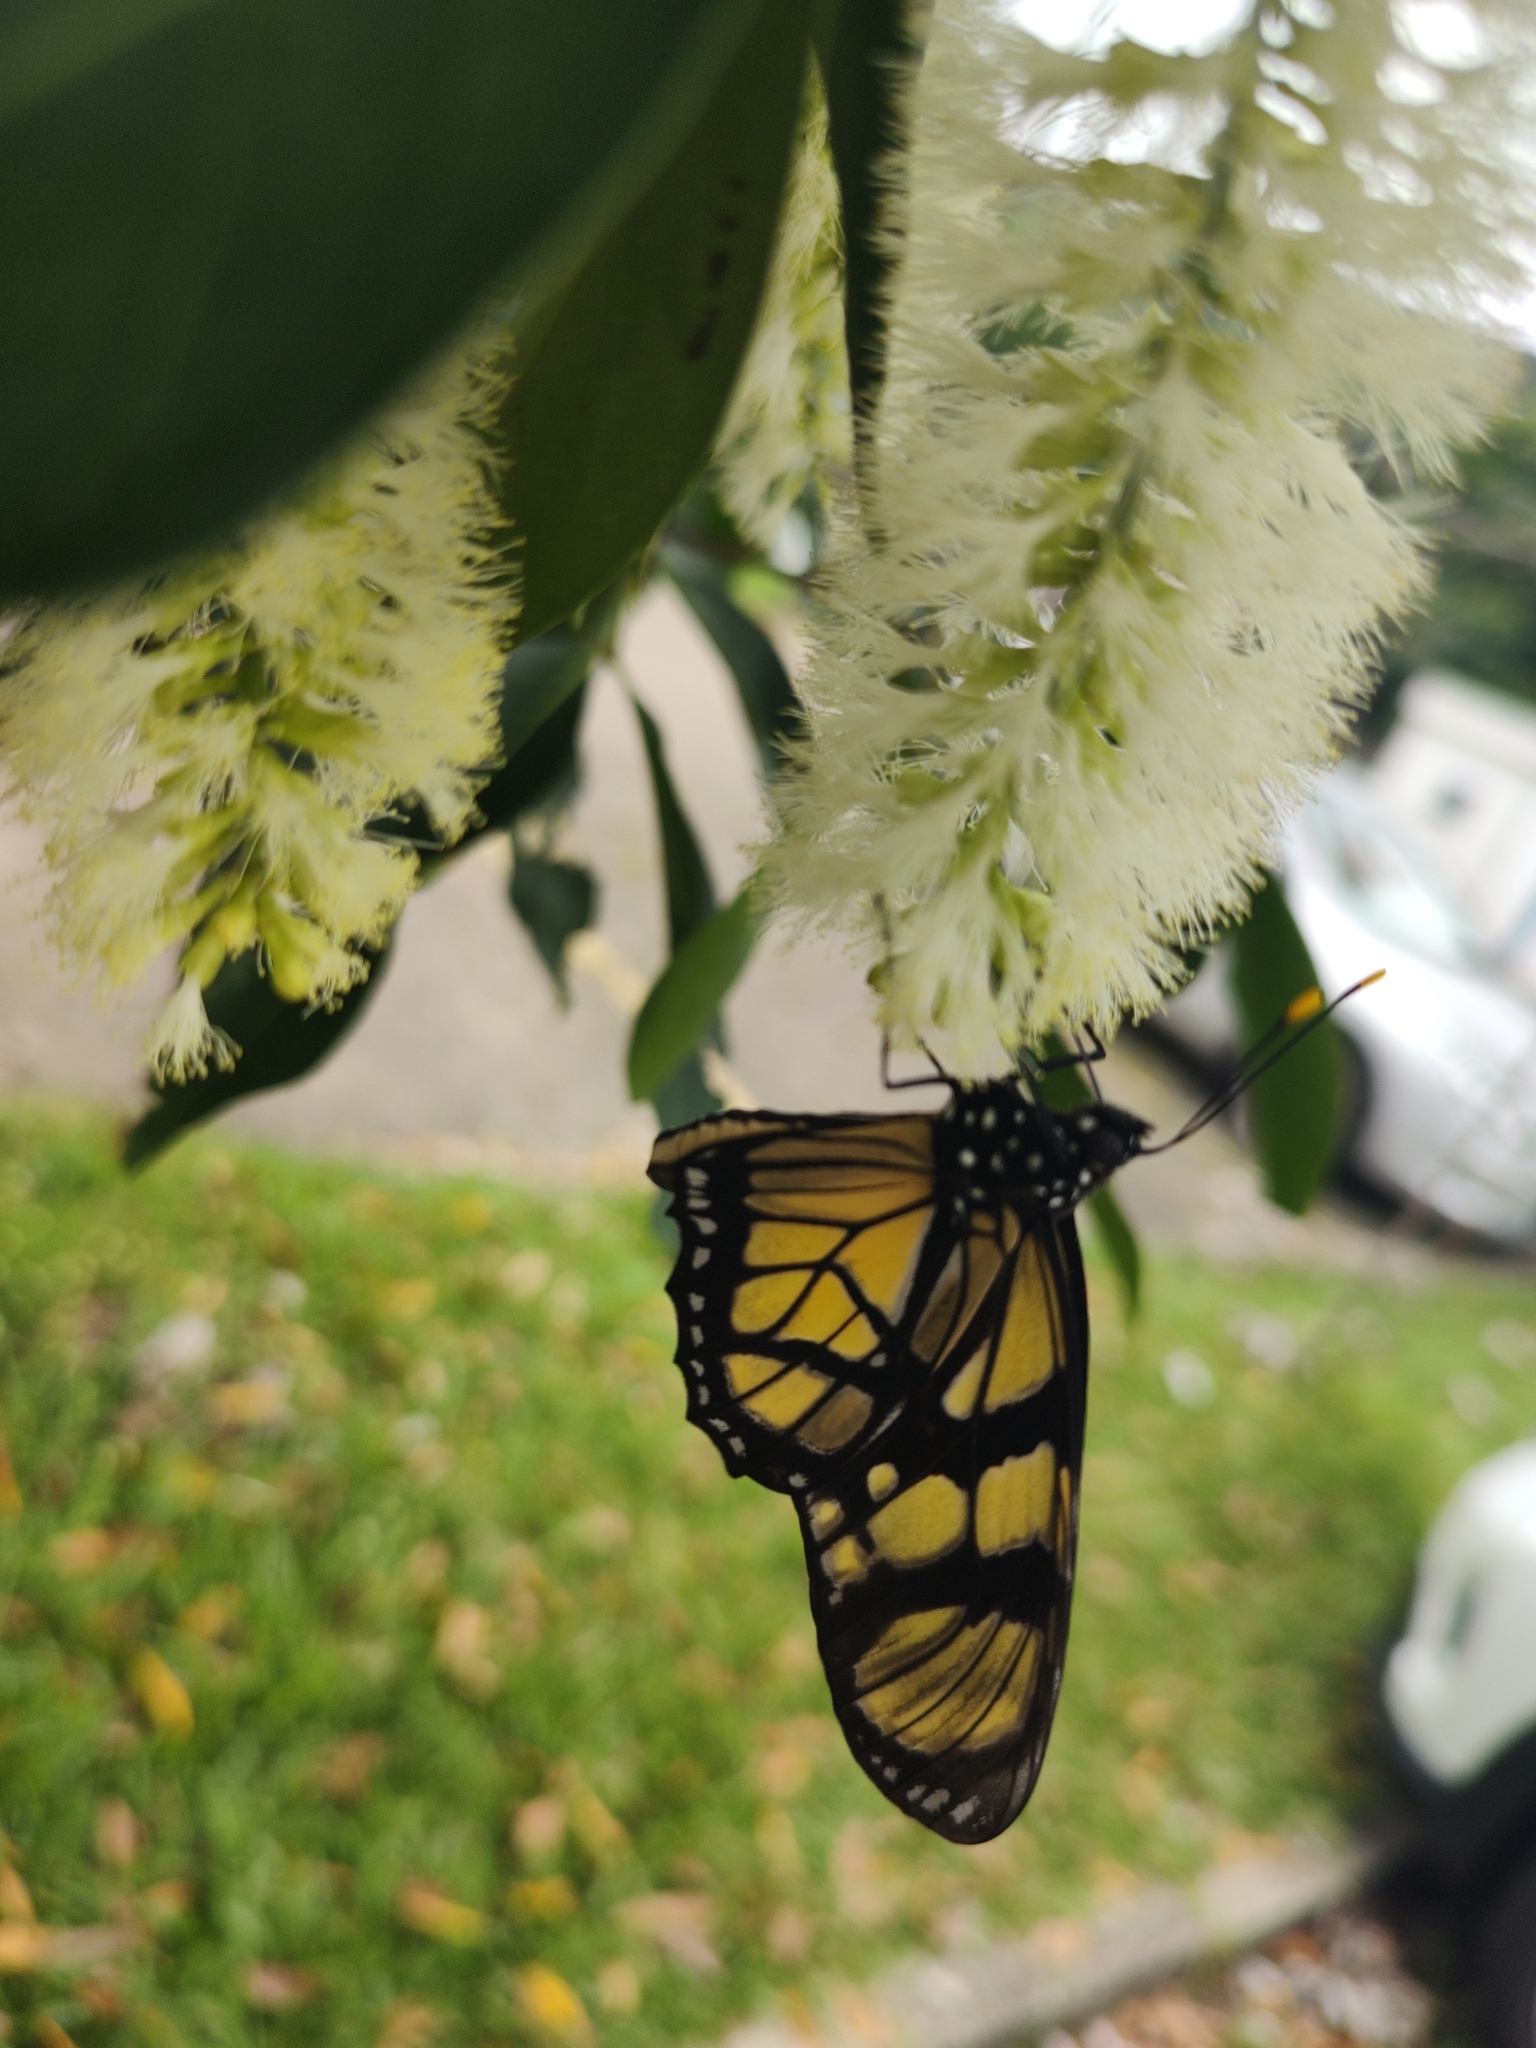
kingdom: Animalia
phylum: Arthropoda
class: Insecta
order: Lepidoptera
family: Nymphalidae
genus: Lycorea
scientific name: Lycorea ilione
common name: Clearwing mimic-queen
